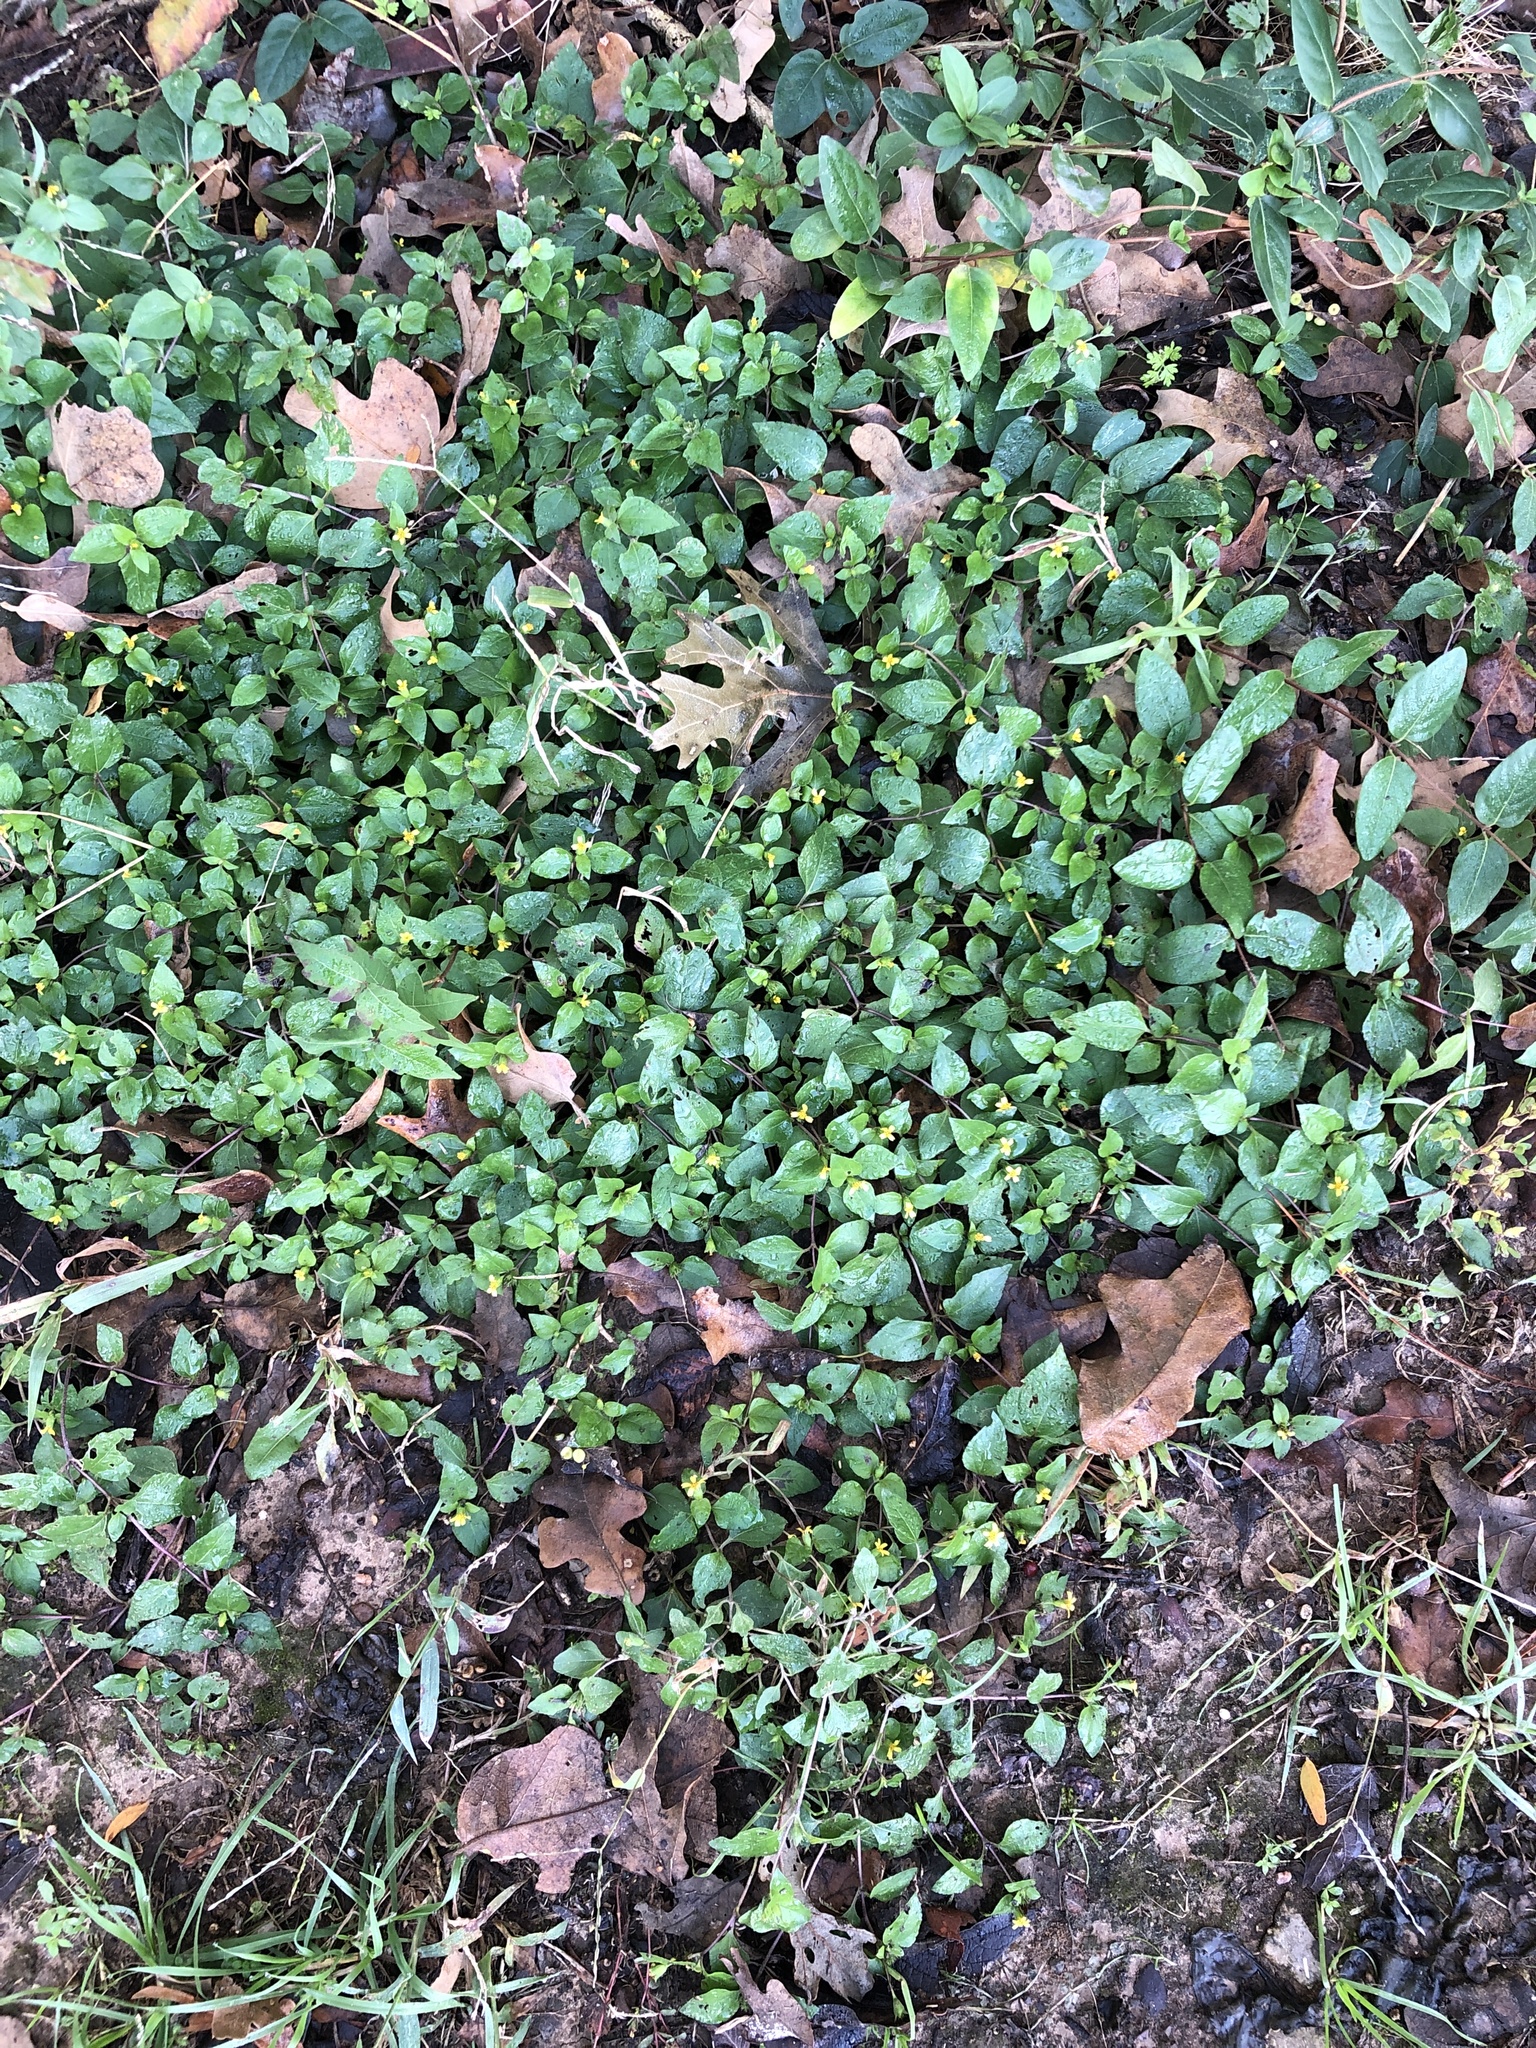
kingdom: Plantae
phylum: Tracheophyta
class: Magnoliopsida
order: Asterales
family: Asteraceae
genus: Calyptocarpus
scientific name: Calyptocarpus vialis
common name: Straggler daisy
